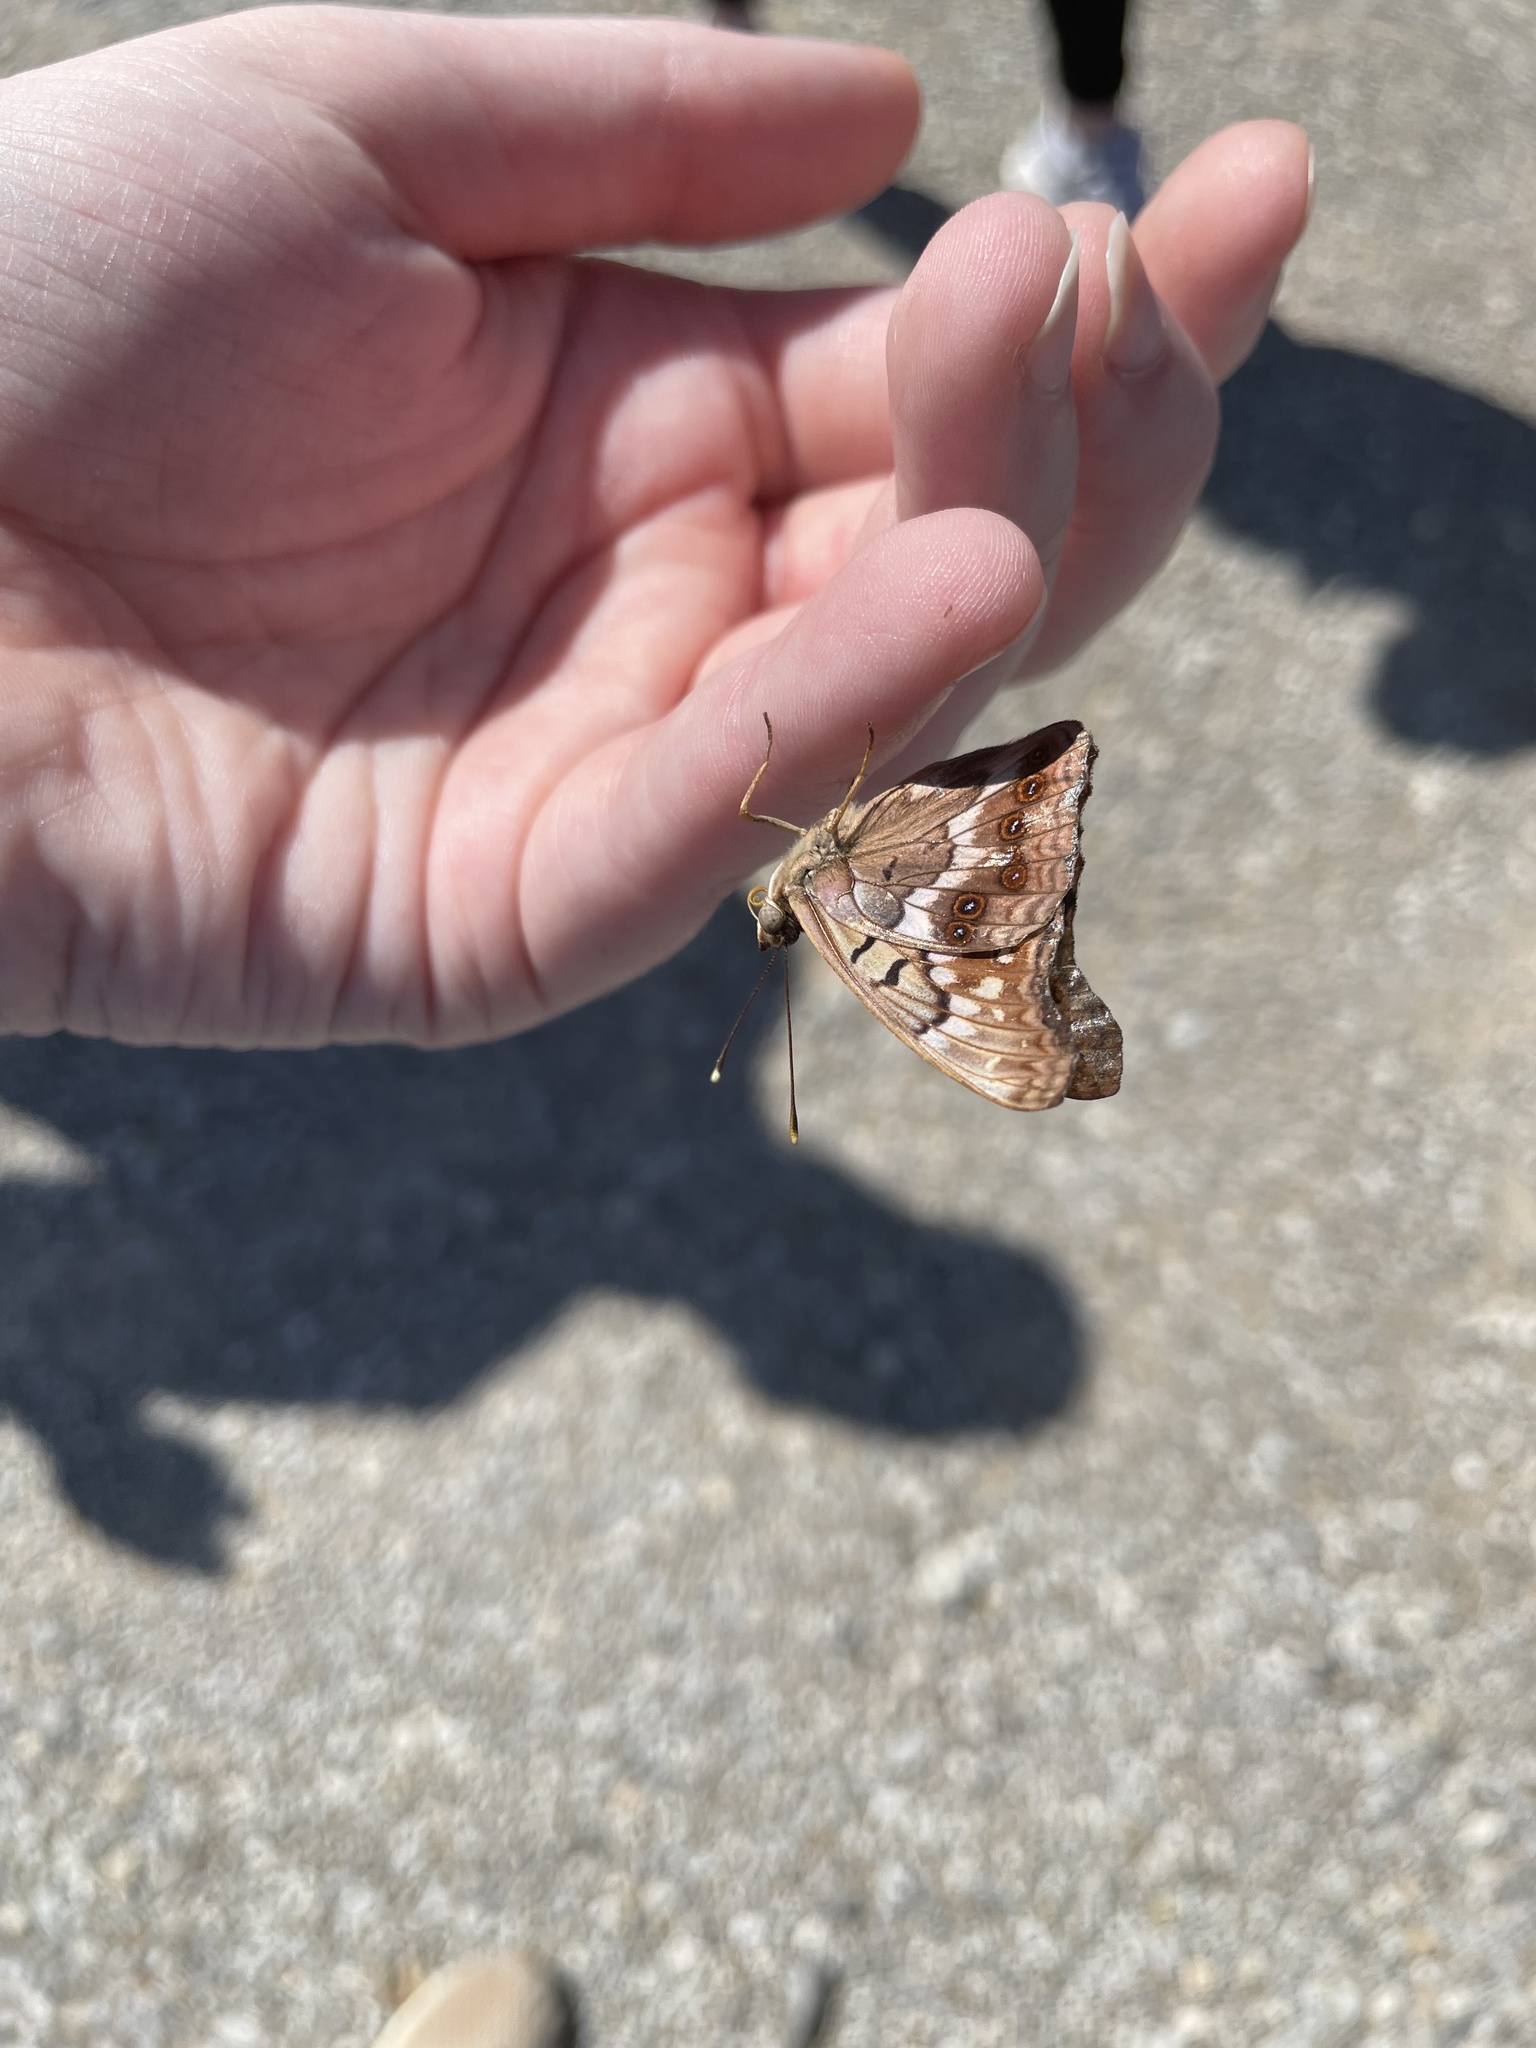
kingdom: Animalia
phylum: Arthropoda
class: Insecta
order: Lepidoptera
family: Nymphalidae
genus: Asterocampa
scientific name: Asterocampa clyton
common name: Tawny emperor
